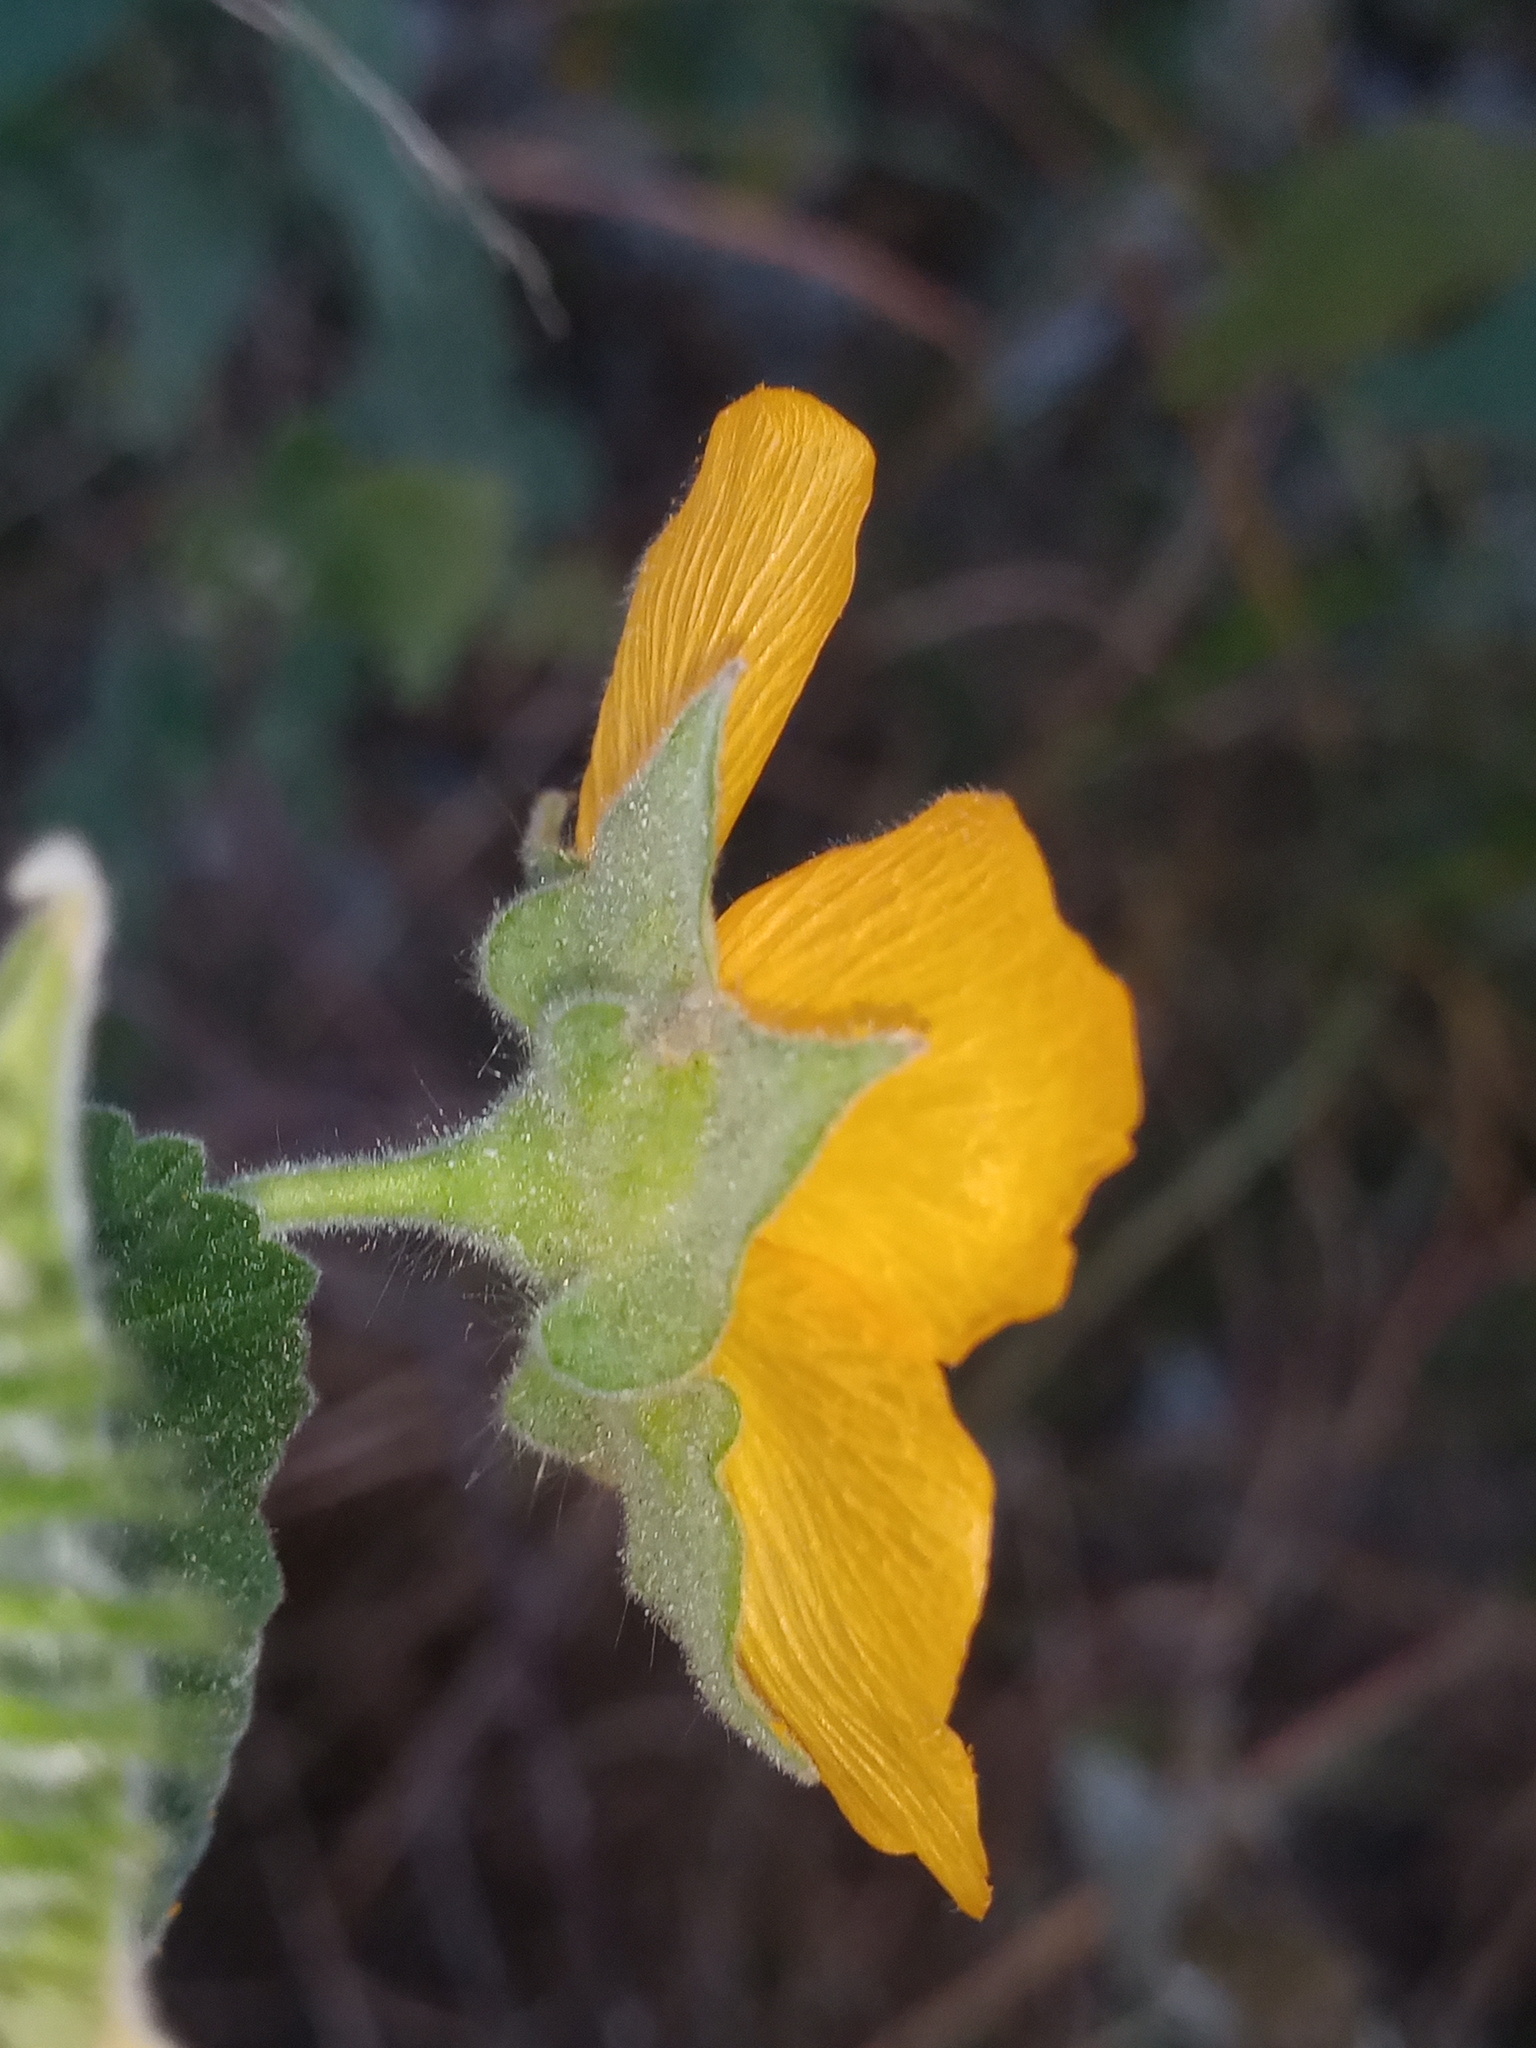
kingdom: Plantae
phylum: Tracheophyta
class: Magnoliopsida
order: Malvales
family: Malvaceae
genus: Abutilon
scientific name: Abutilon hypoleucum
